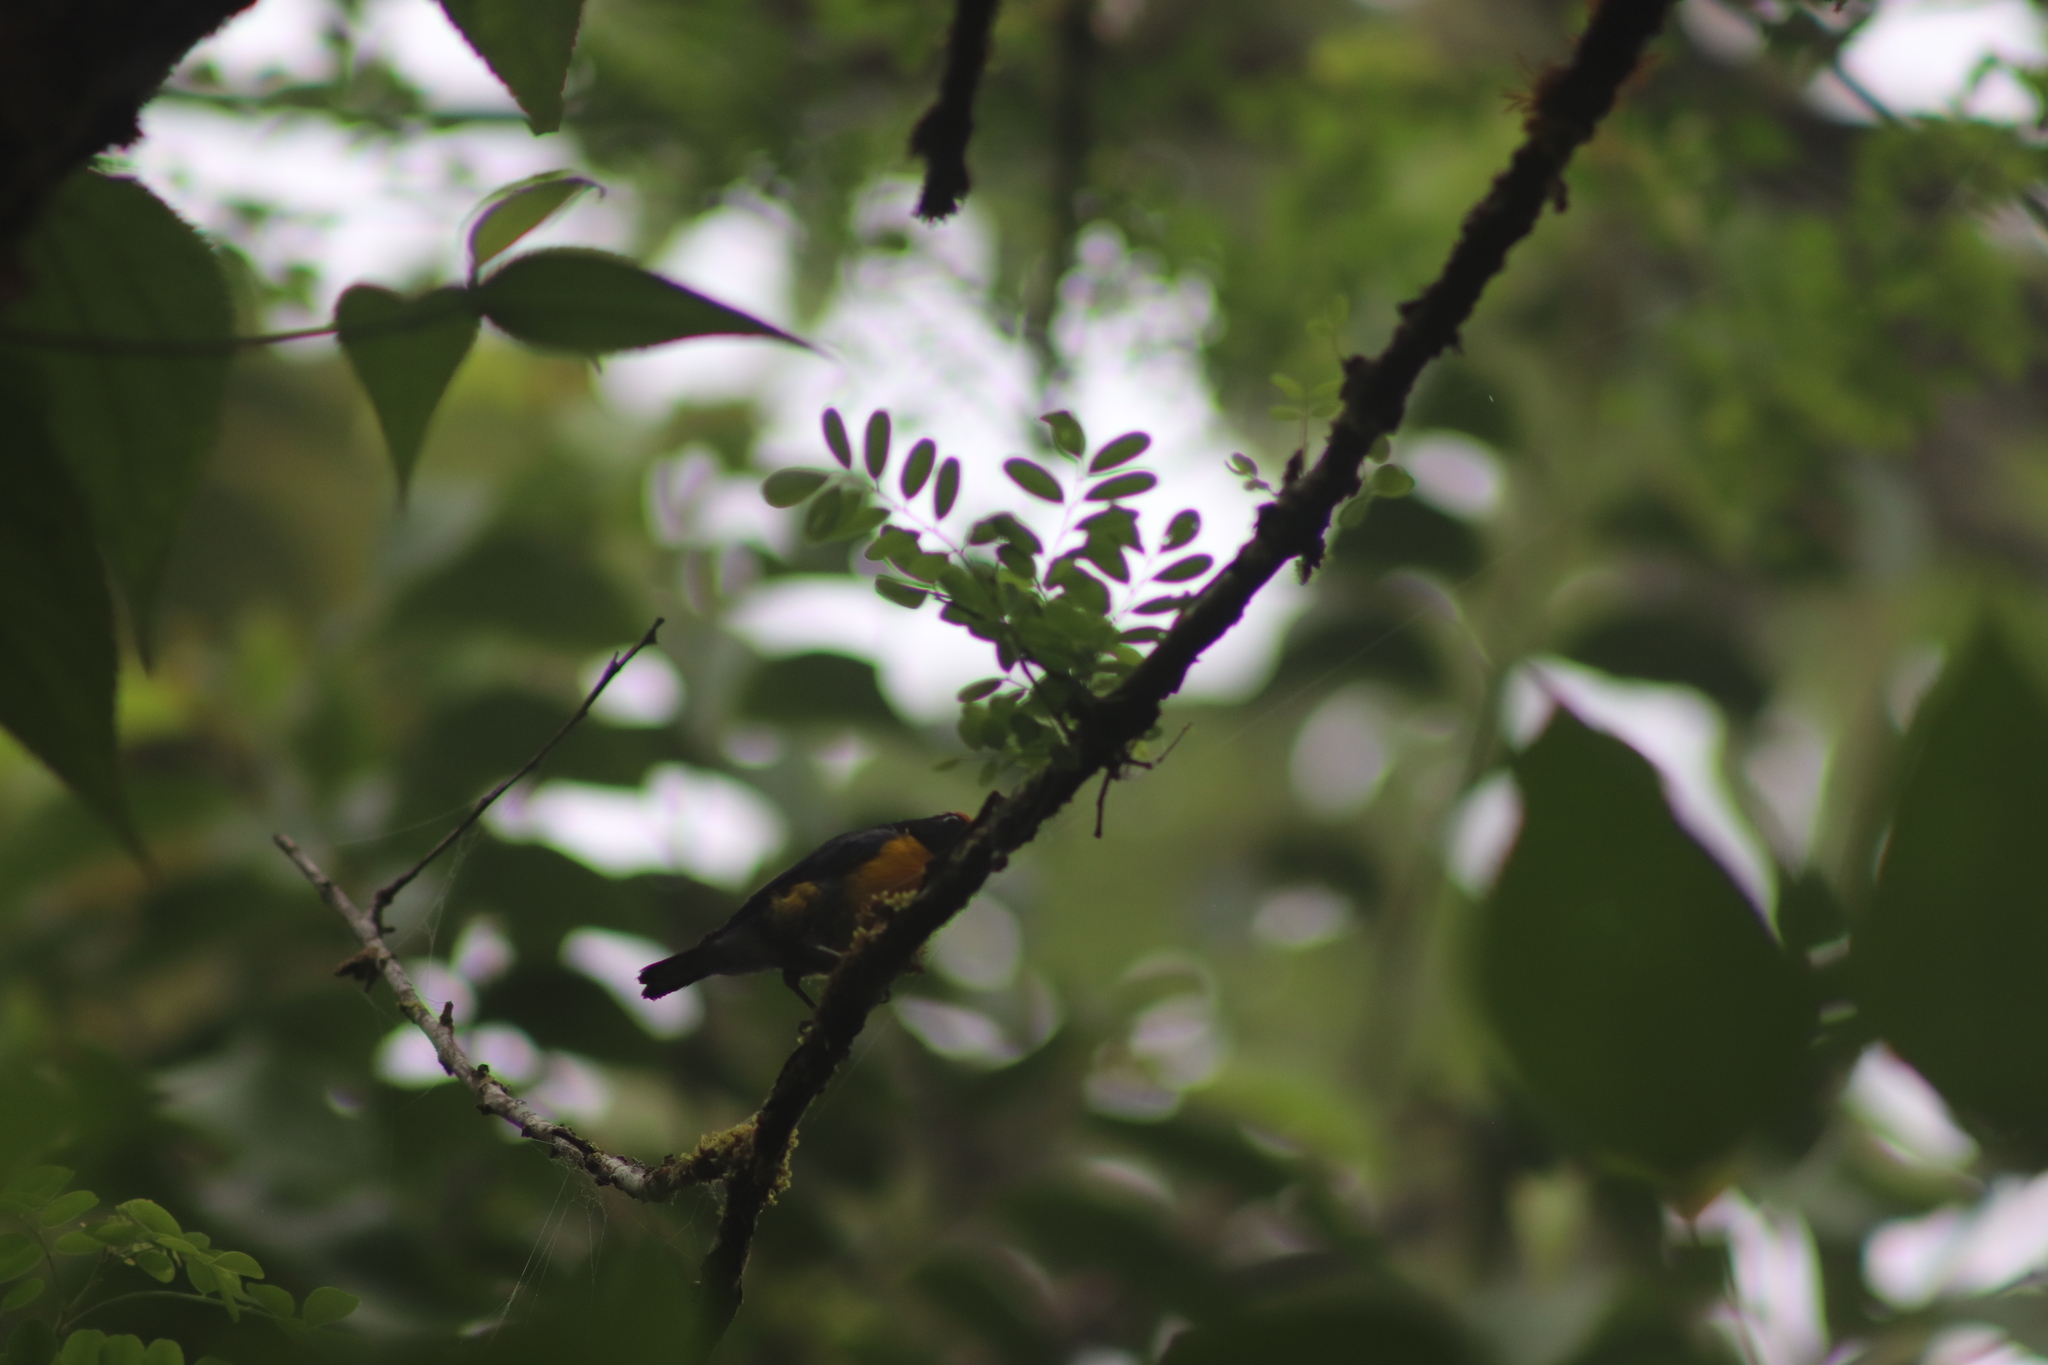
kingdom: Animalia
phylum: Chordata
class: Aves
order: Passeriformes
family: Fringillidae
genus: Euphonia
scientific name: Euphonia anneae
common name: Tawny-capped euphonia
